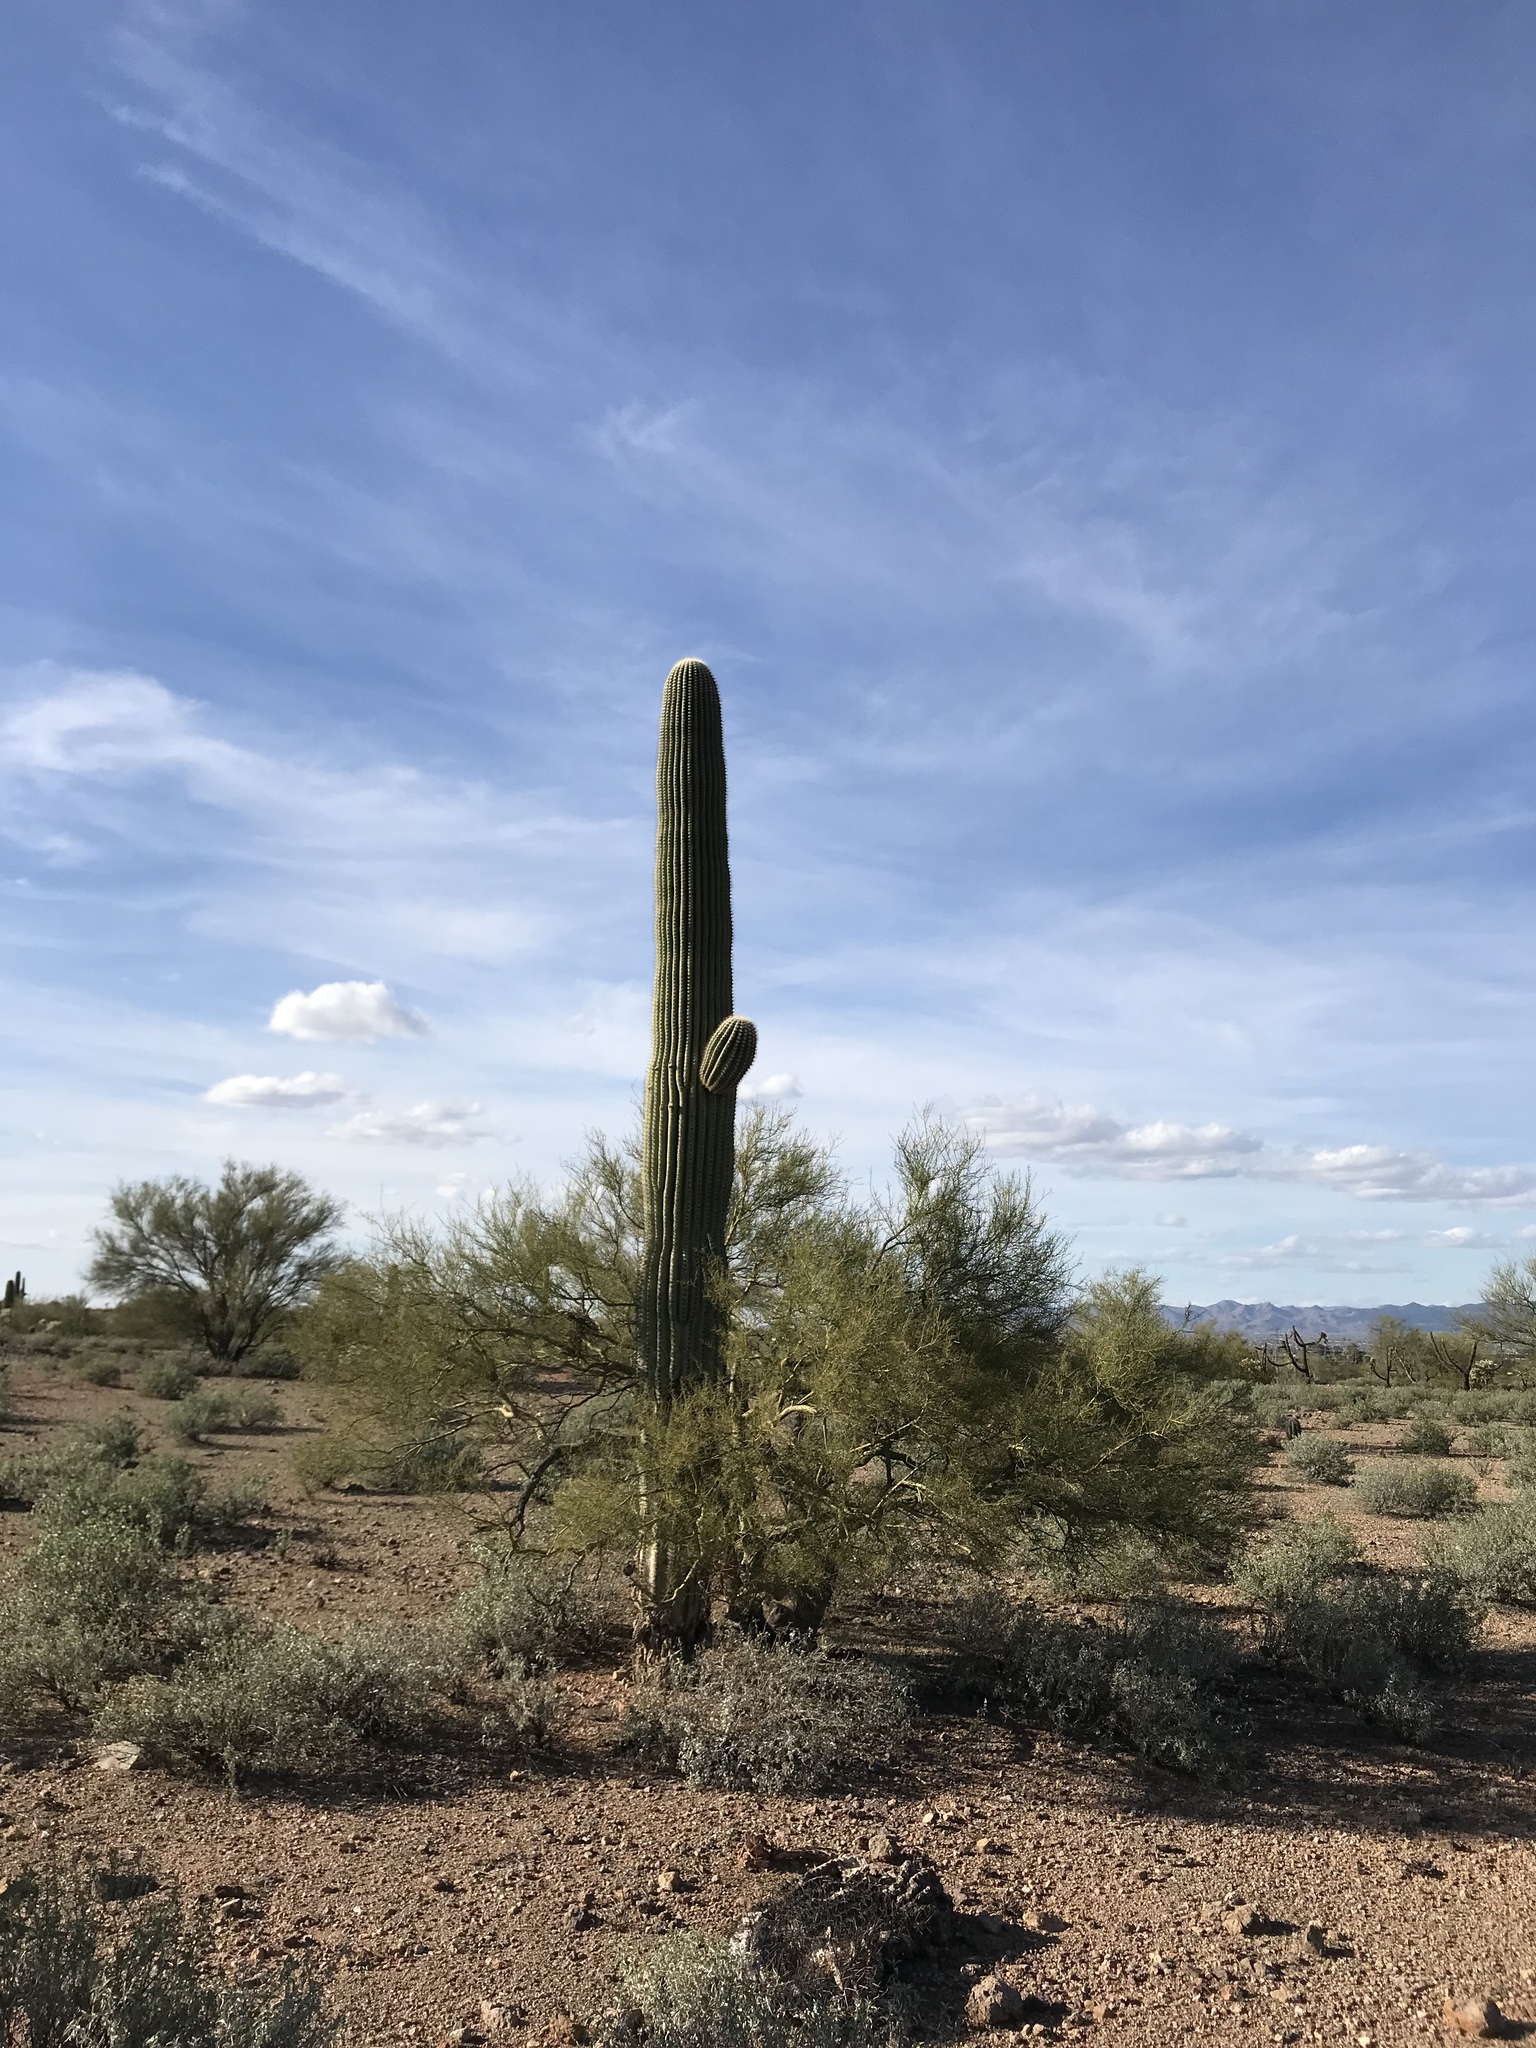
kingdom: Plantae
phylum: Tracheophyta
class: Magnoliopsida
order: Caryophyllales
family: Cactaceae
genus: Carnegiea
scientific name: Carnegiea gigantea
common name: Saguaro
